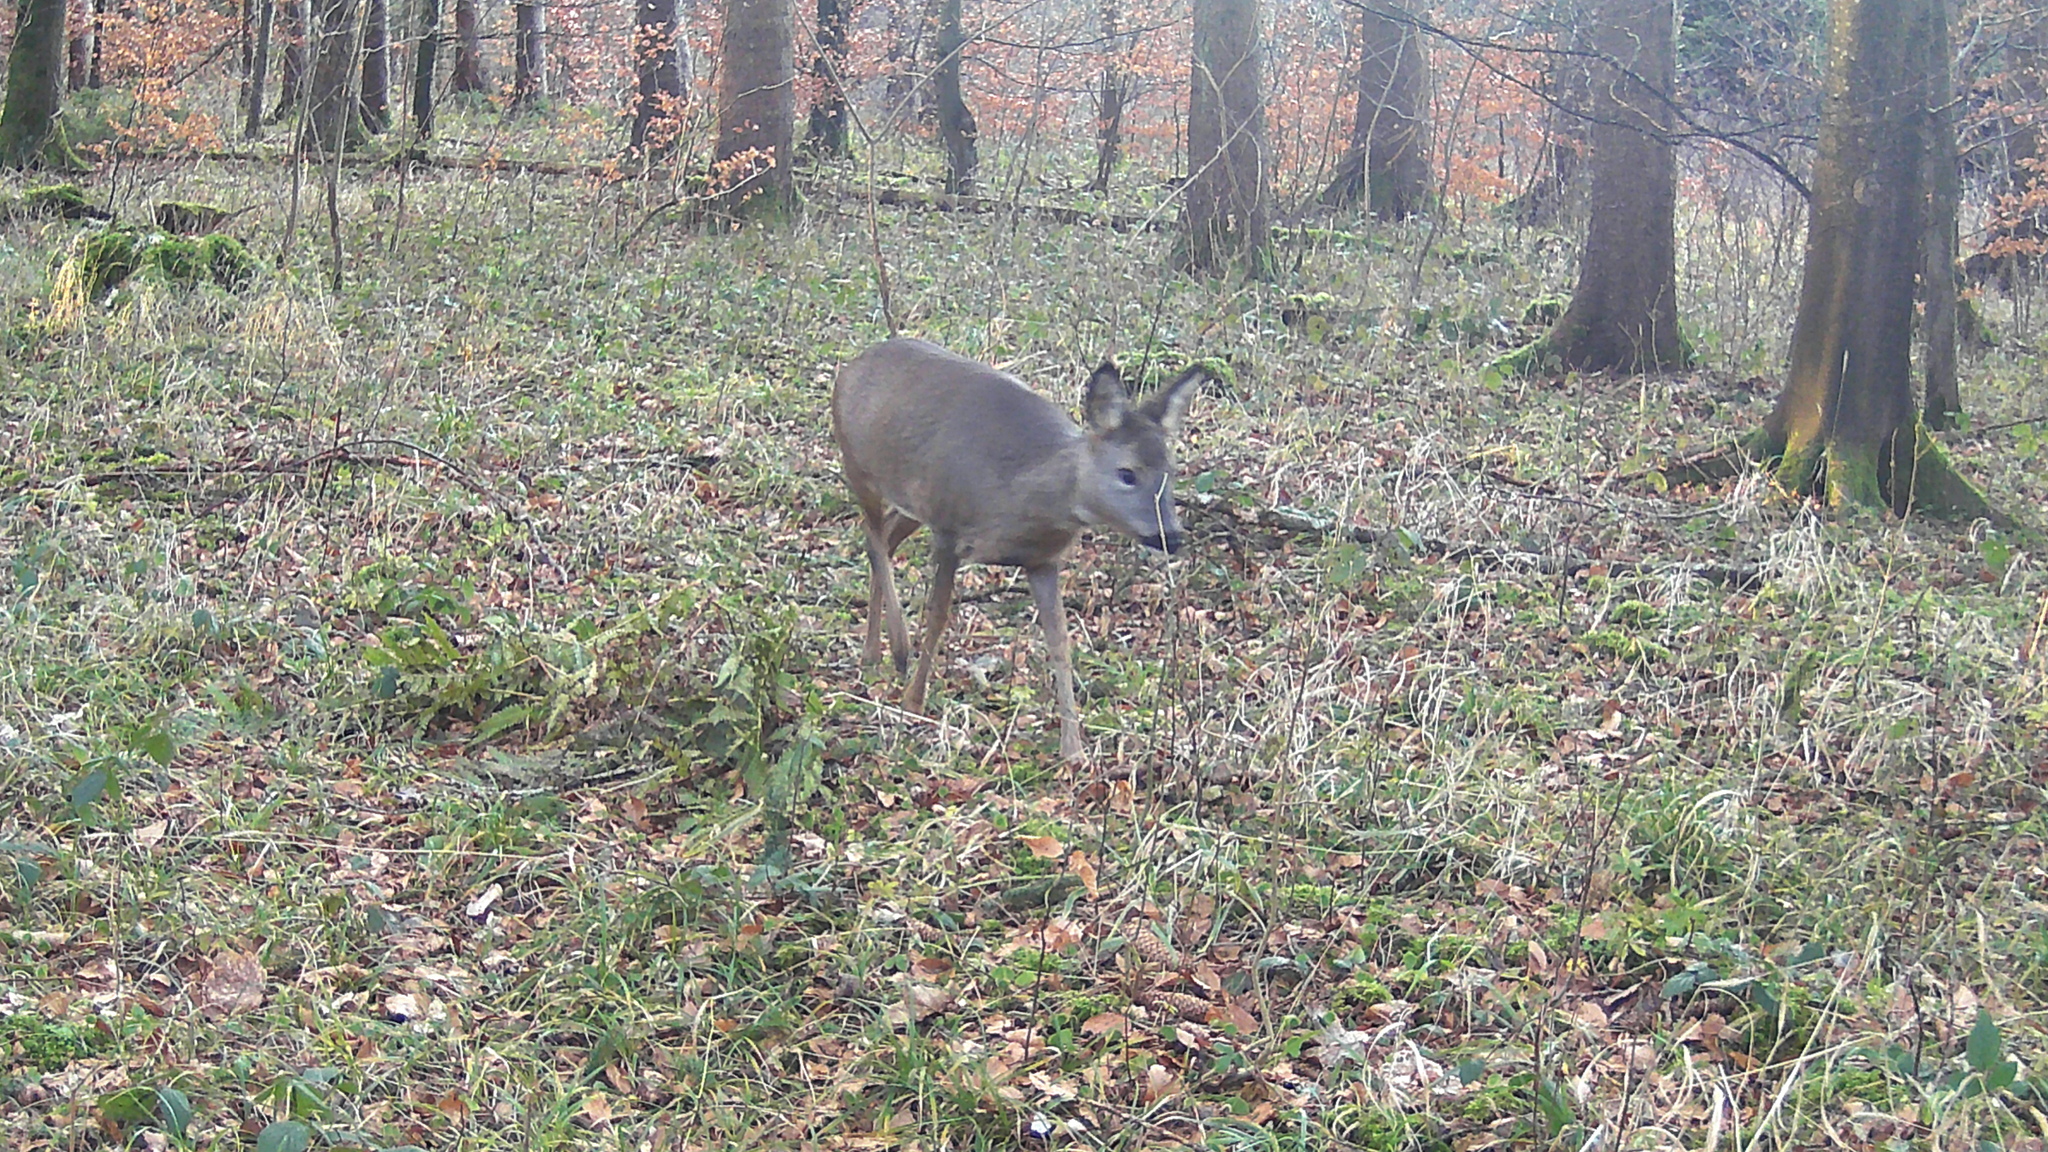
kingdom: Animalia
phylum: Chordata
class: Mammalia
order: Artiodactyla
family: Cervidae
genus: Capreolus
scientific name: Capreolus capreolus
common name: Western roe deer
